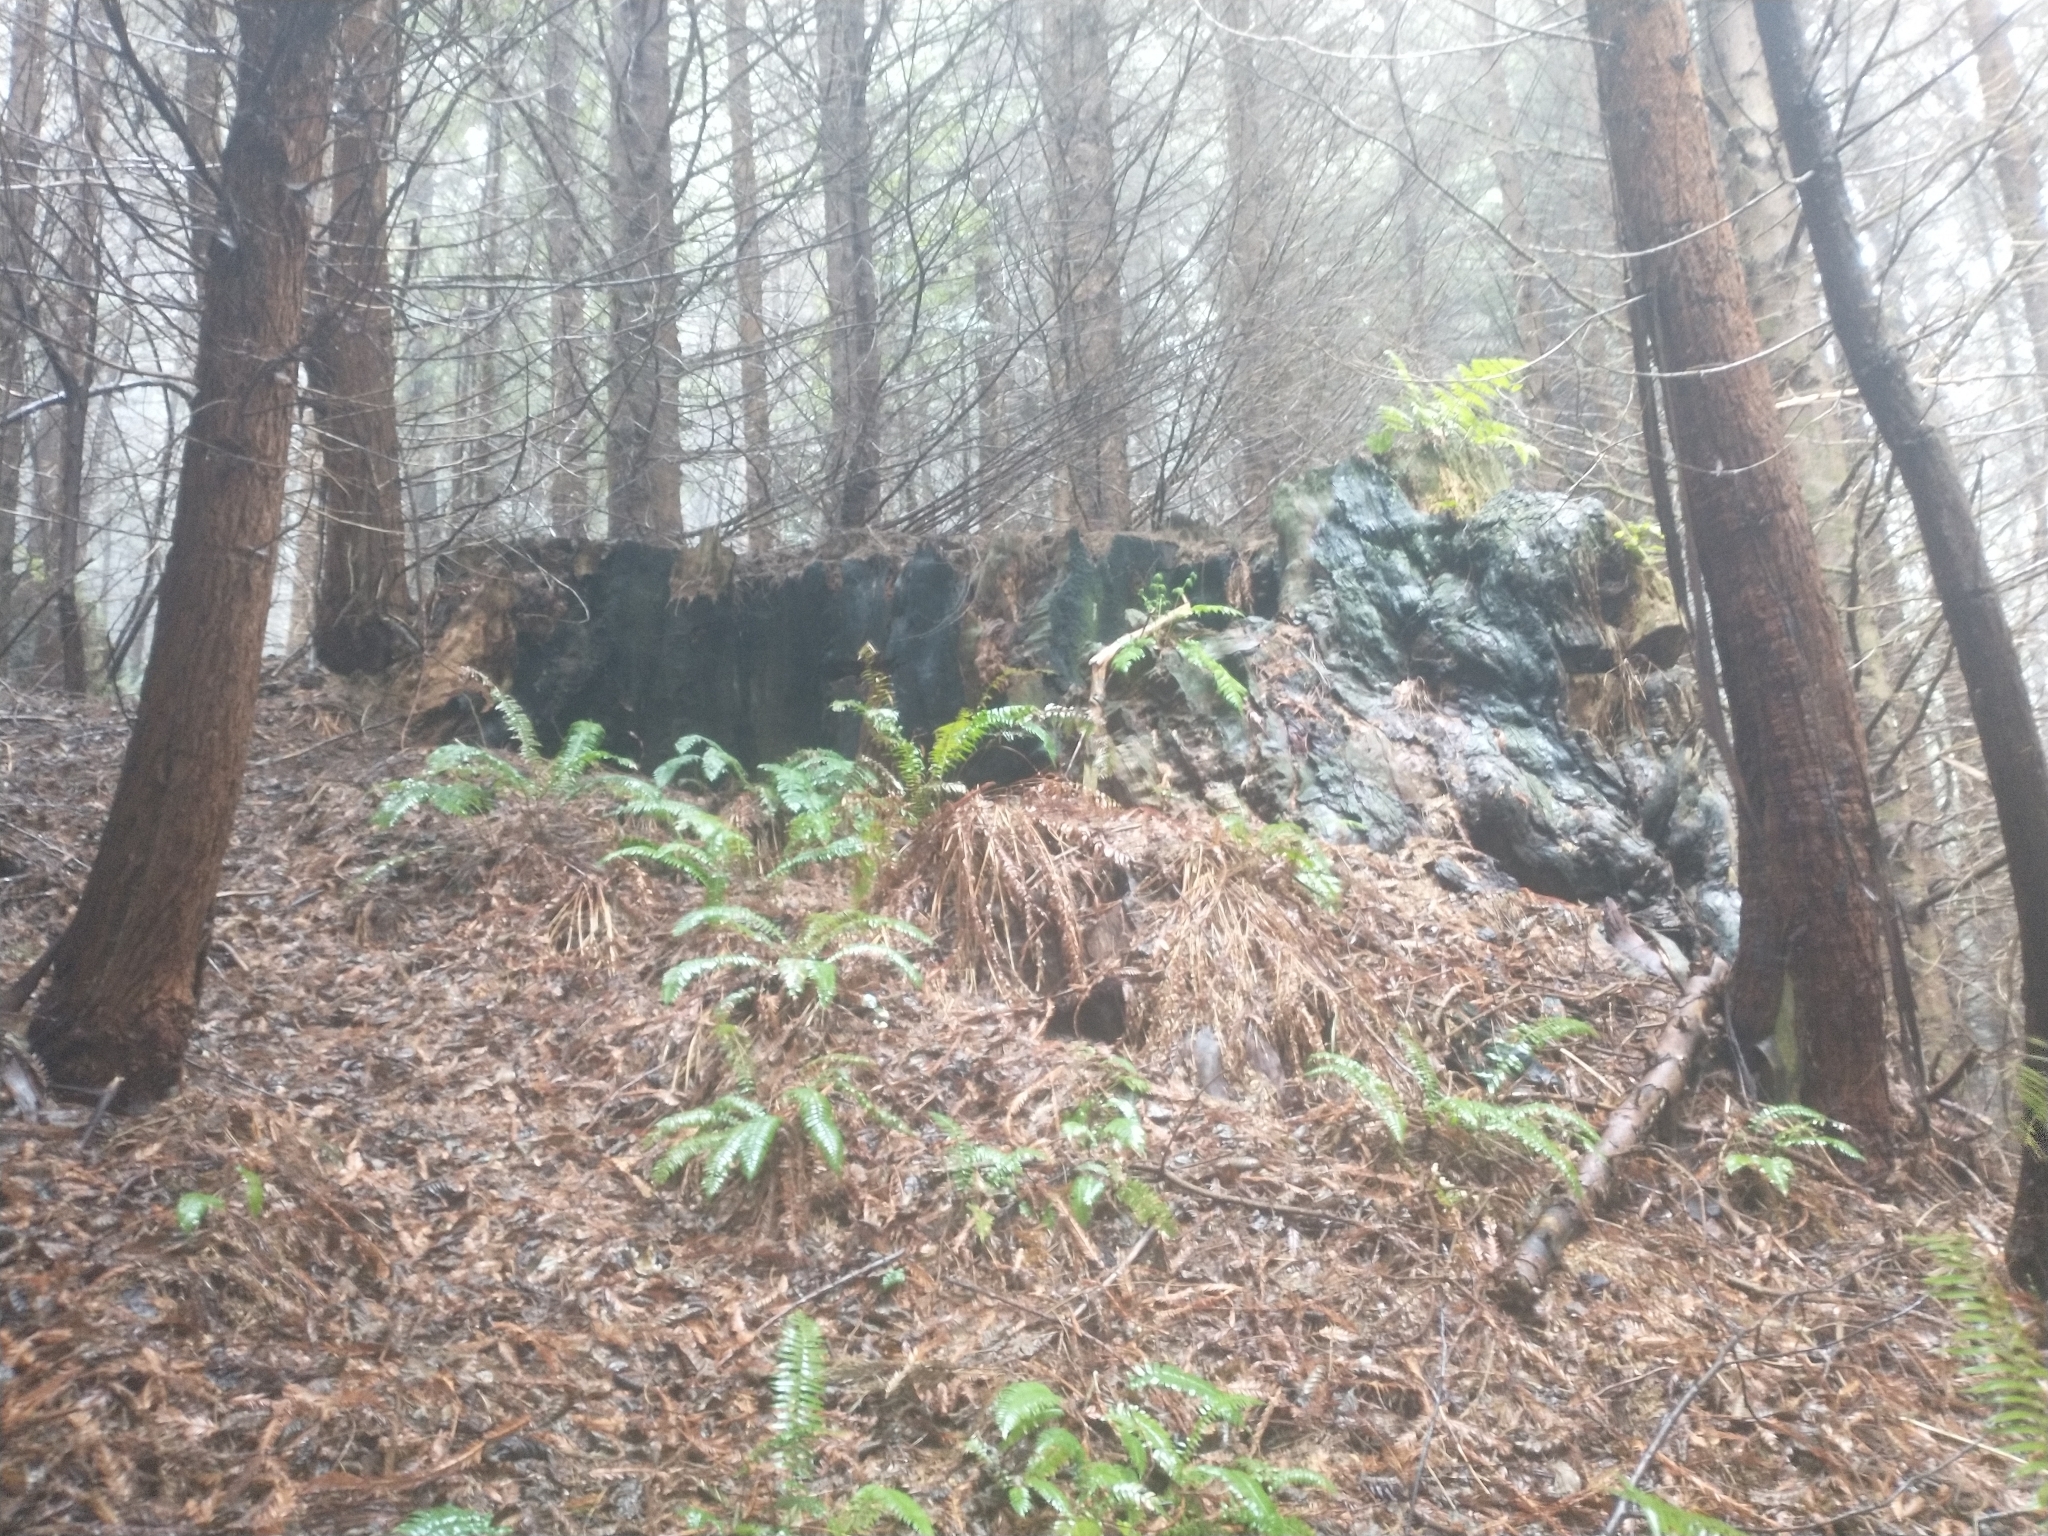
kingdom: Plantae
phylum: Tracheophyta
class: Pinopsida
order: Pinales
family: Cupressaceae
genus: Sequoia
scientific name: Sequoia sempervirens
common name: Coast redwood
